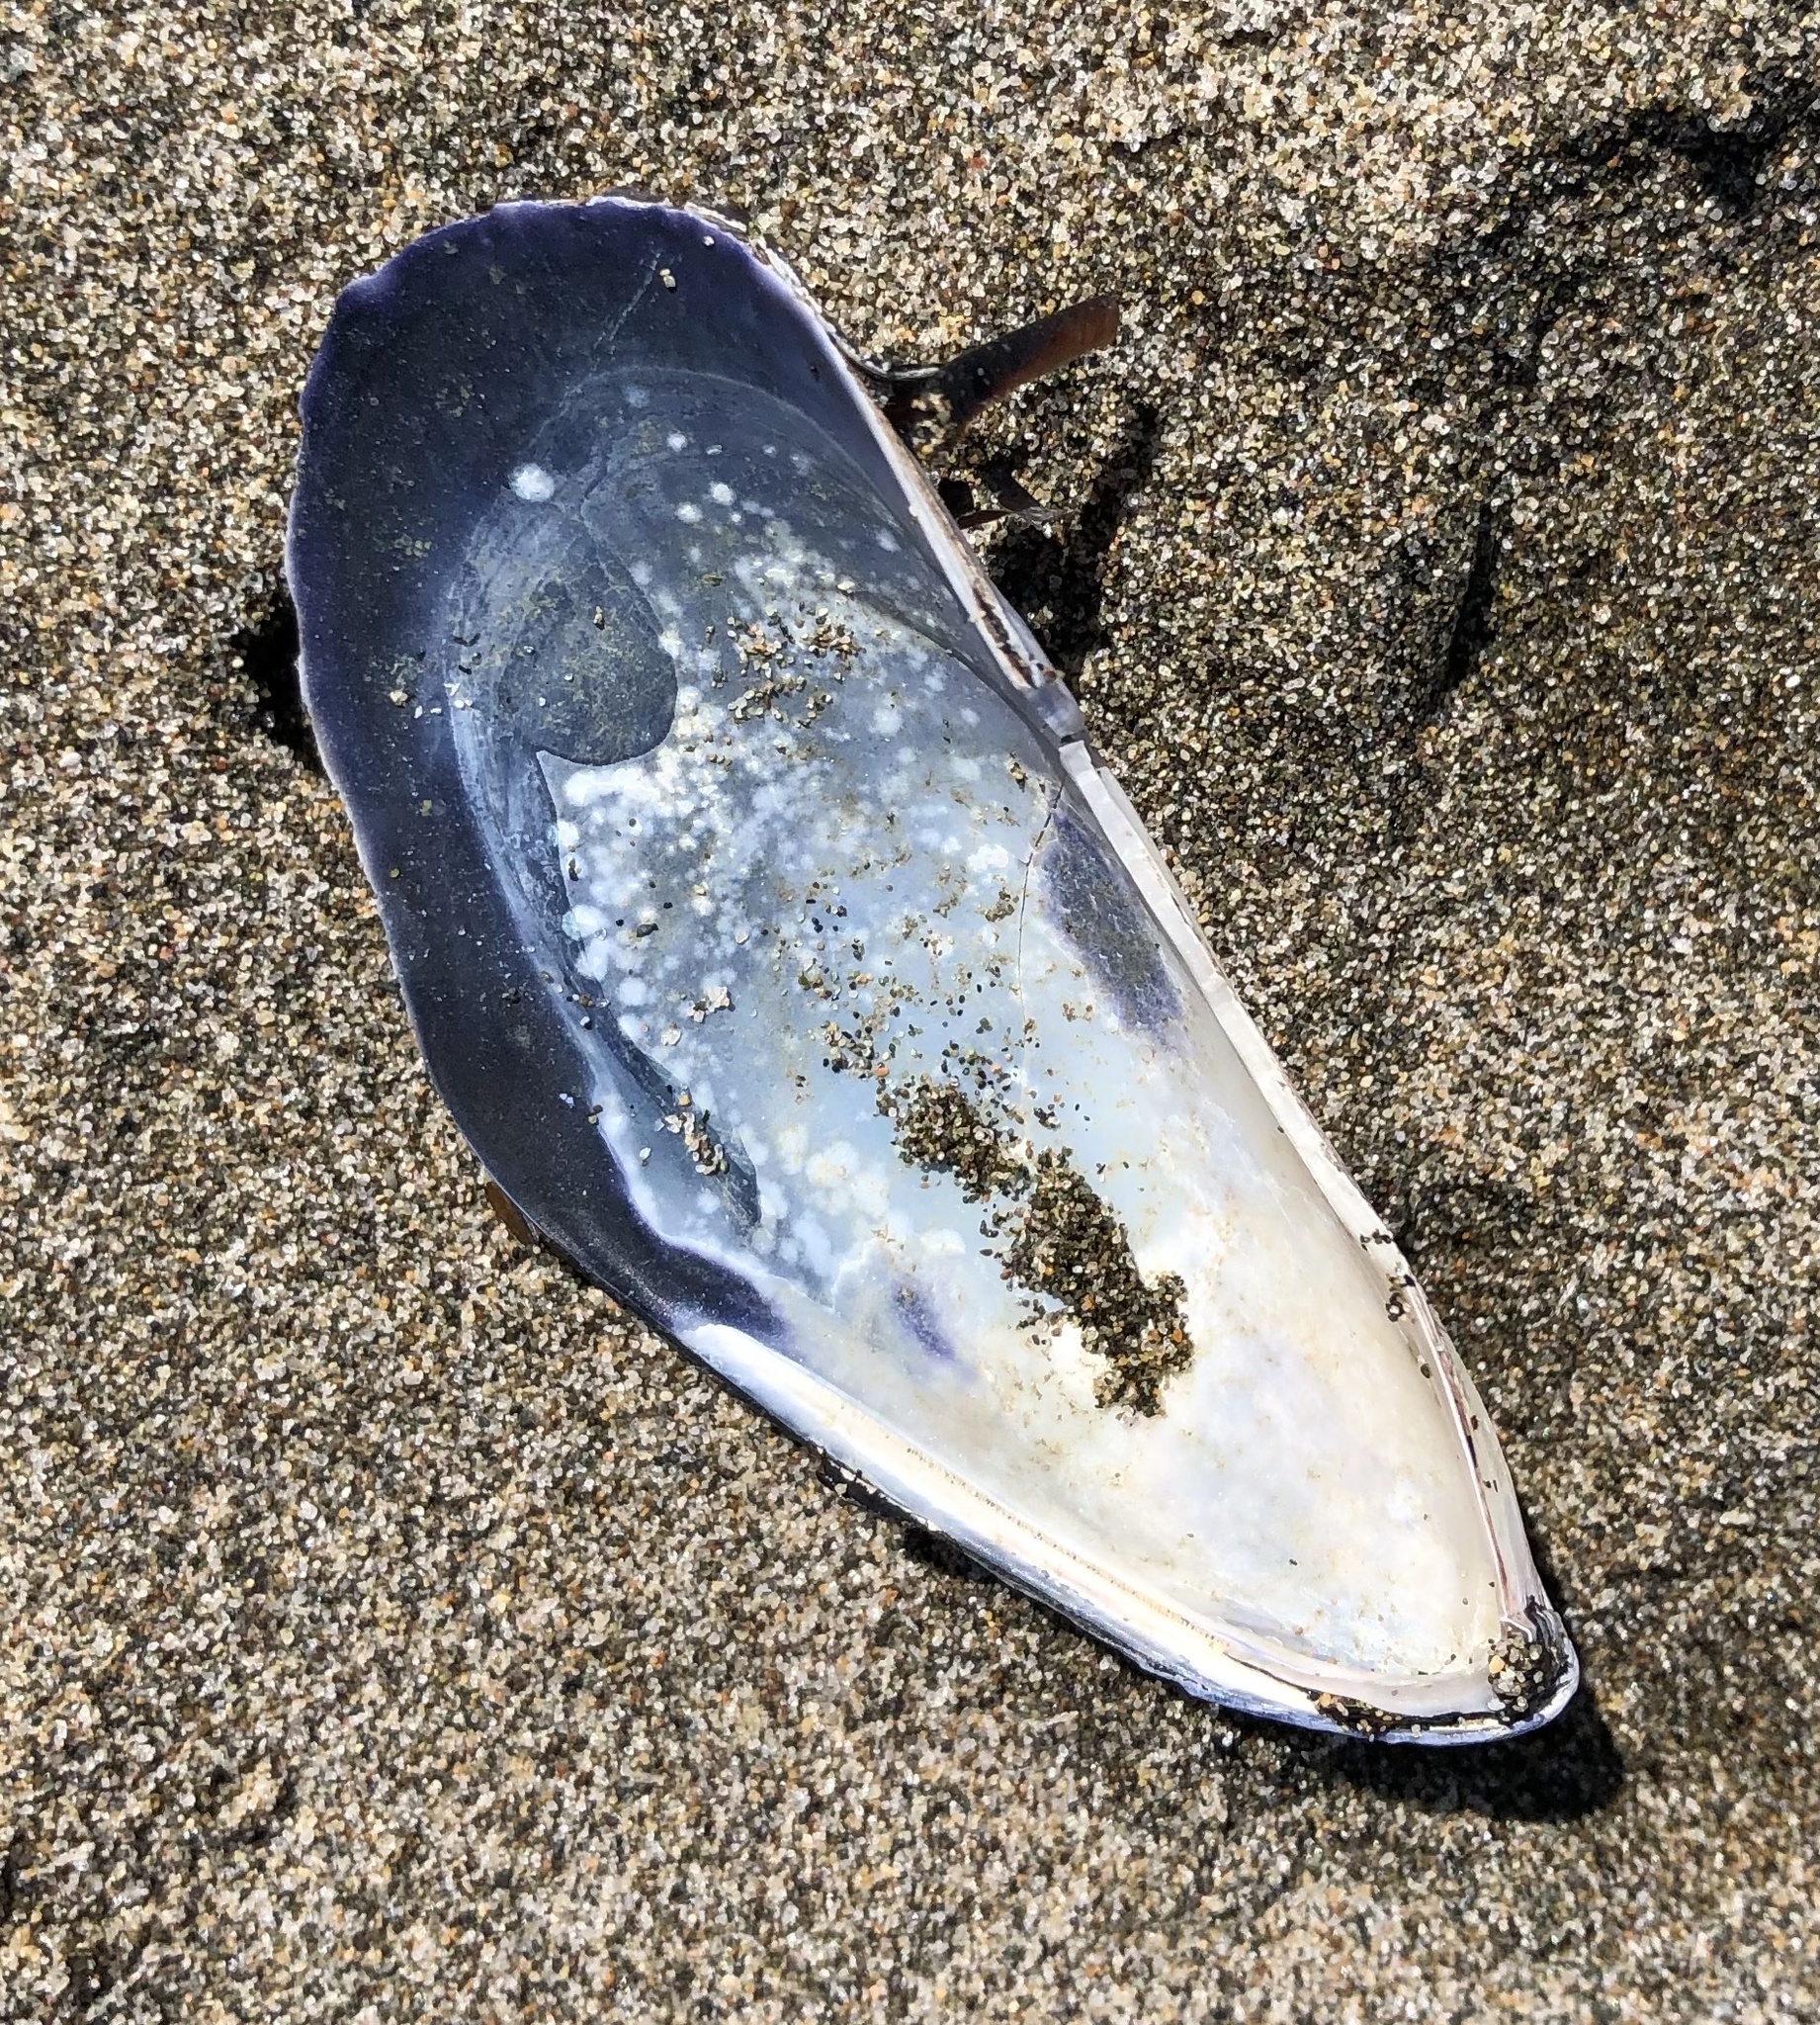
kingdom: Animalia
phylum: Mollusca
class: Bivalvia
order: Mytilida
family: Mytilidae
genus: Mytilus
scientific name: Mytilus californianus
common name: California mussel
